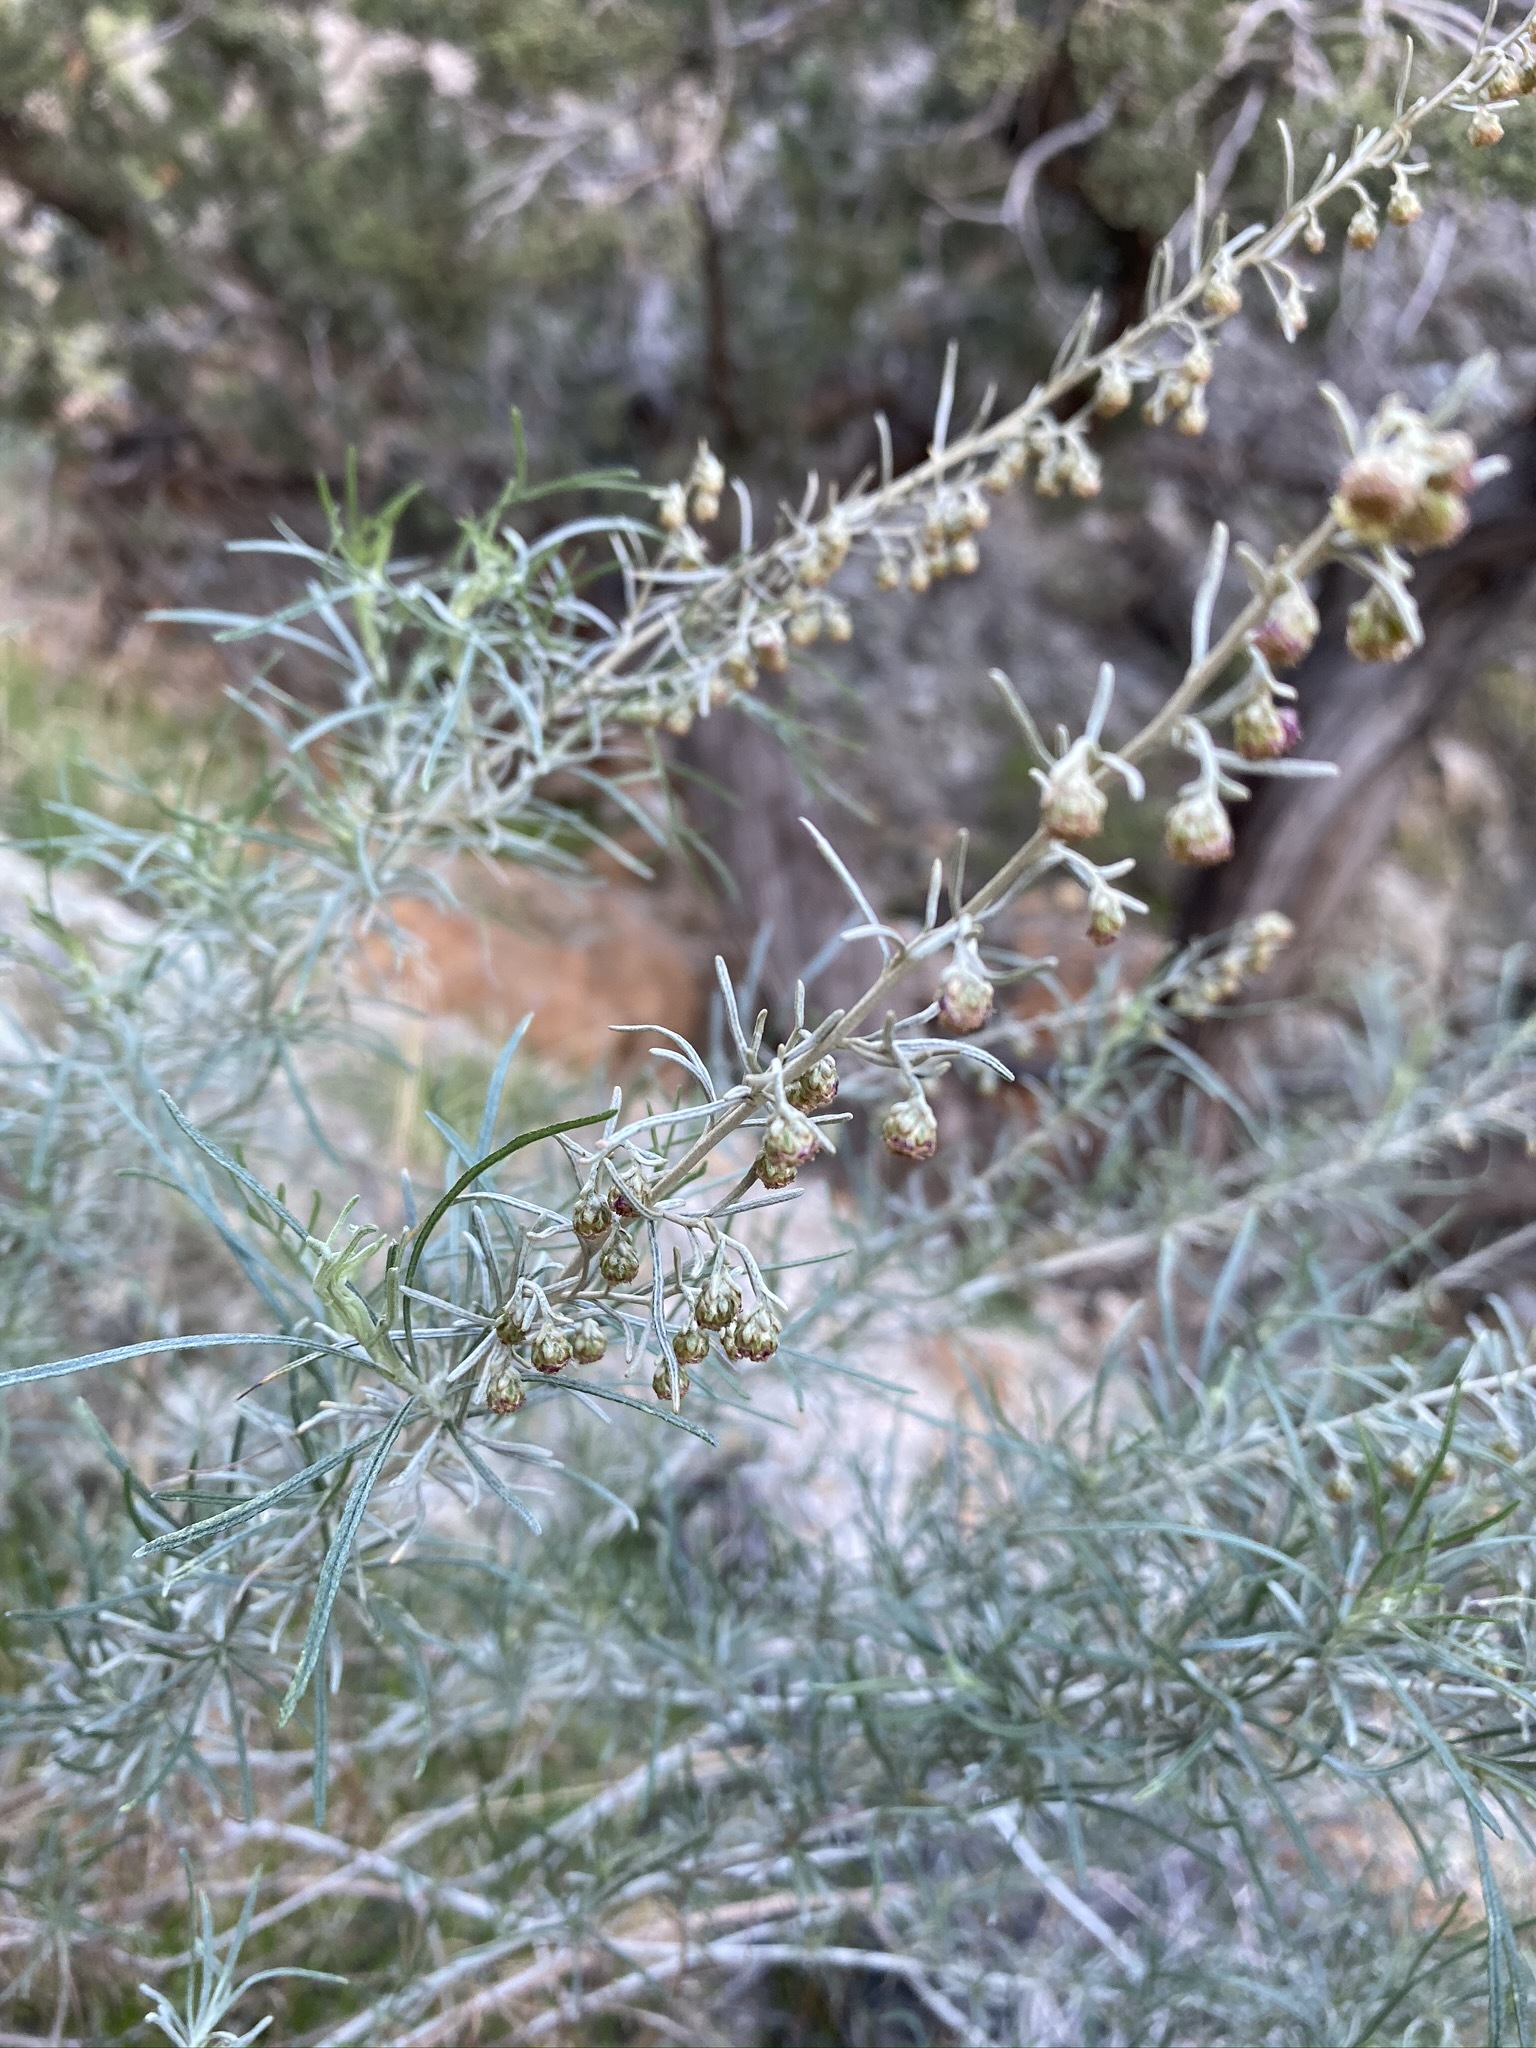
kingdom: Plantae
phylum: Tracheophyta
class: Magnoliopsida
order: Asterales
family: Asteraceae
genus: Artemisia
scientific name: Artemisia californica
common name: California sagebrush
